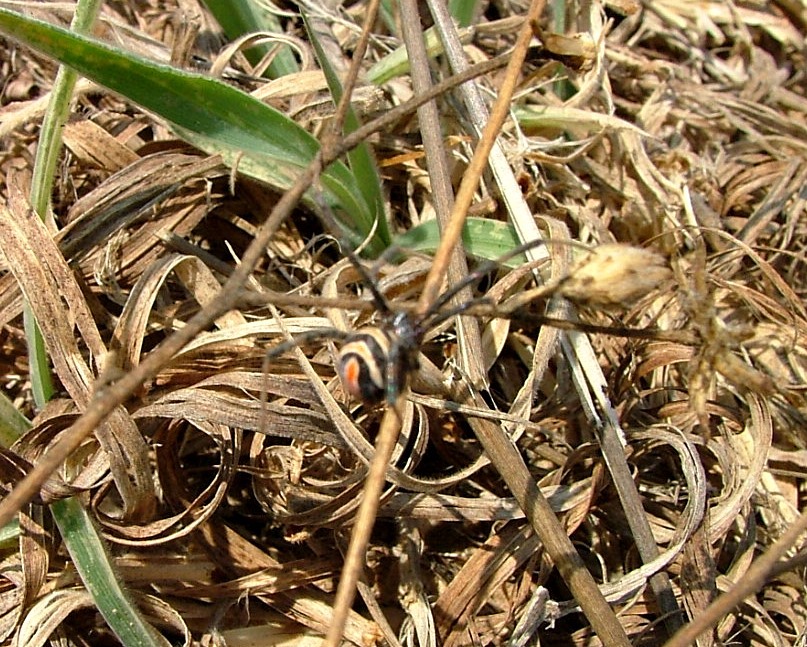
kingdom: Animalia
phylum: Arthropoda
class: Arachnida
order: Araneae
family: Theridiidae
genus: Latrodectus
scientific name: Latrodectus renivulvatus
